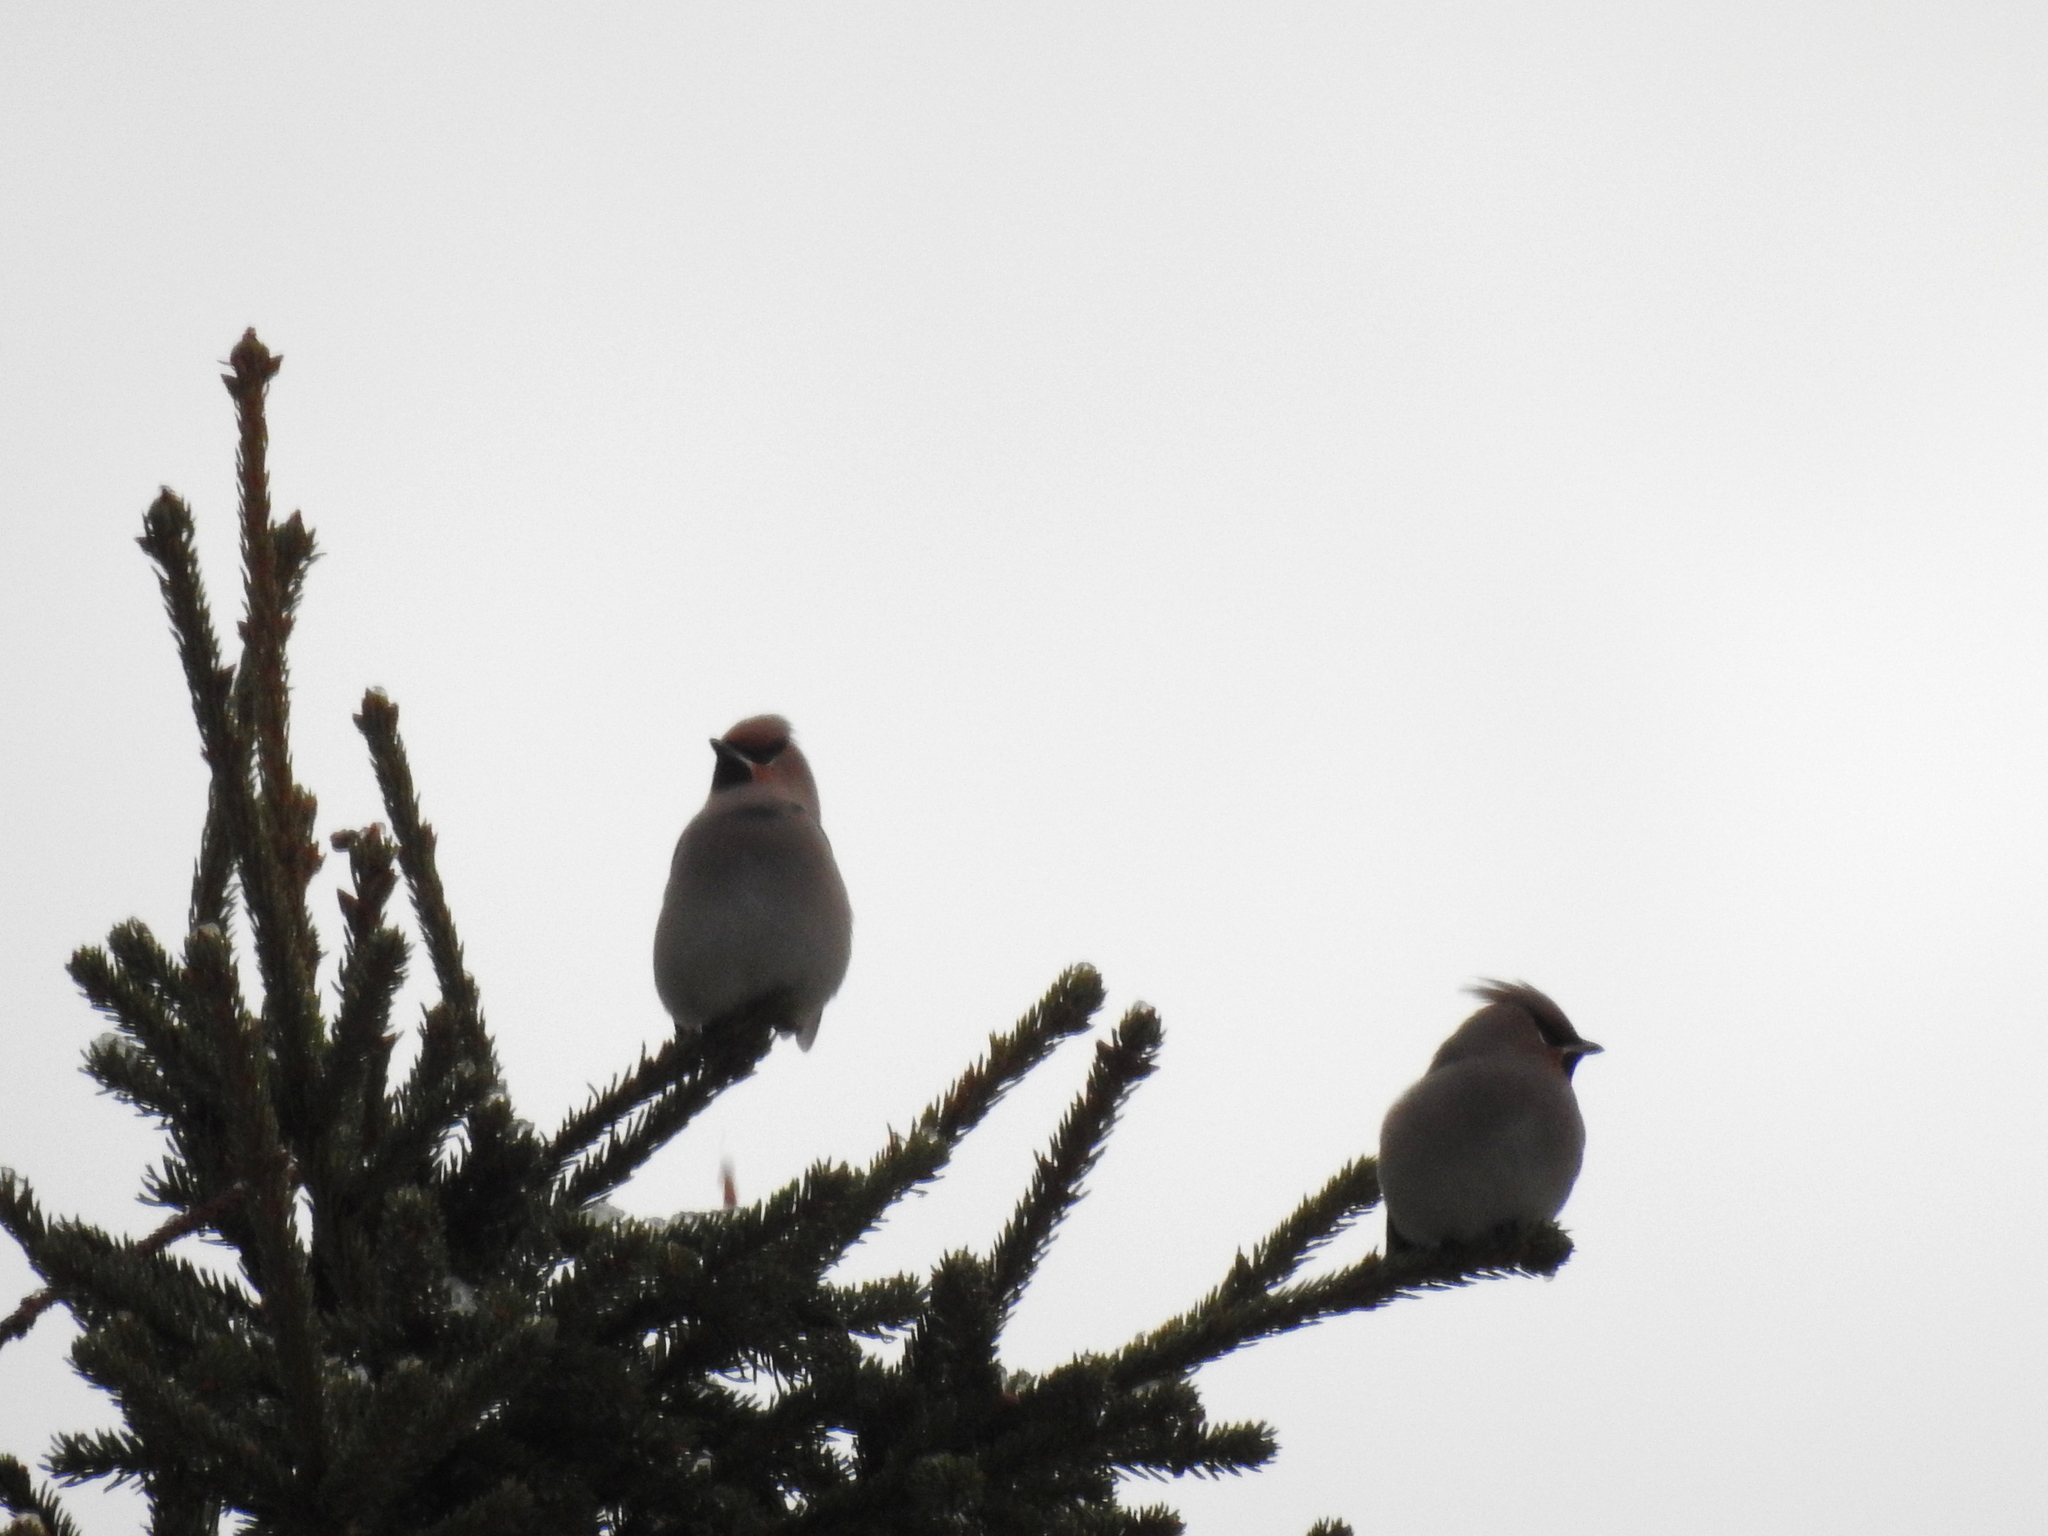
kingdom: Animalia
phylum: Chordata
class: Aves
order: Passeriformes
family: Bombycillidae
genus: Bombycilla
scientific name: Bombycilla garrulus
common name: Bohemian waxwing
